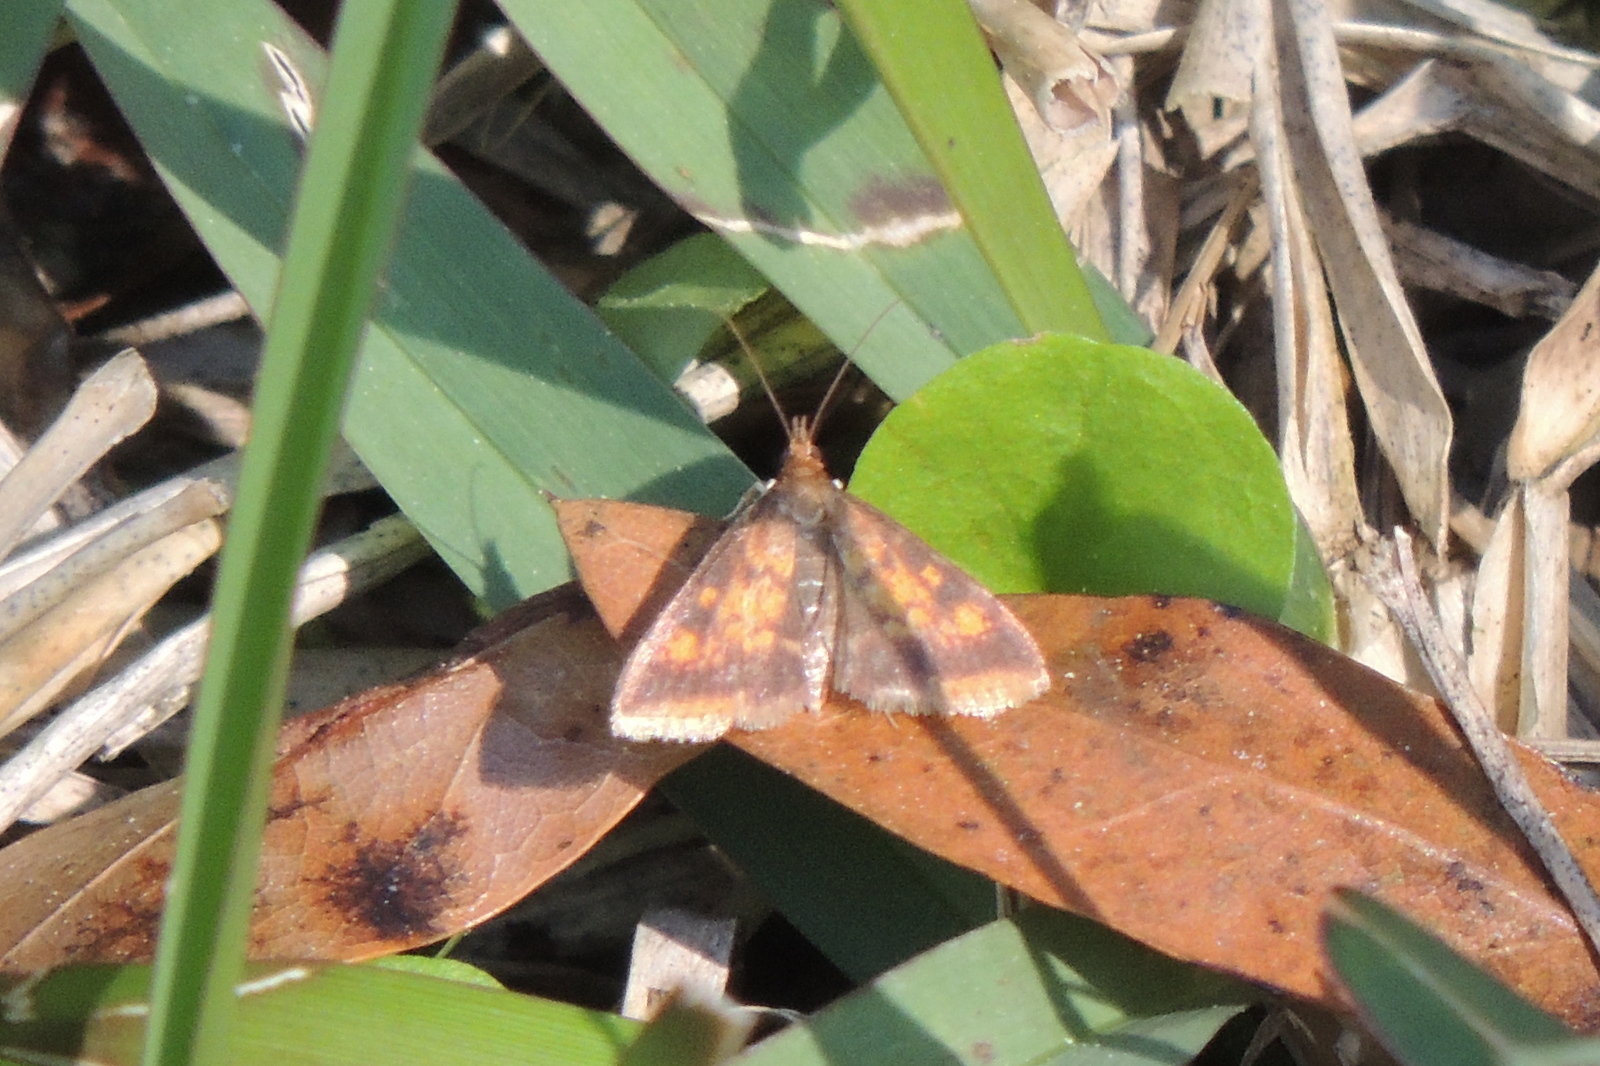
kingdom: Animalia
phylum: Arthropoda
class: Insecta
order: Lepidoptera
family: Crambidae
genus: Pyrausta
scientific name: Pyrausta acrionalis
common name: Mint-loving pyrausta moth
